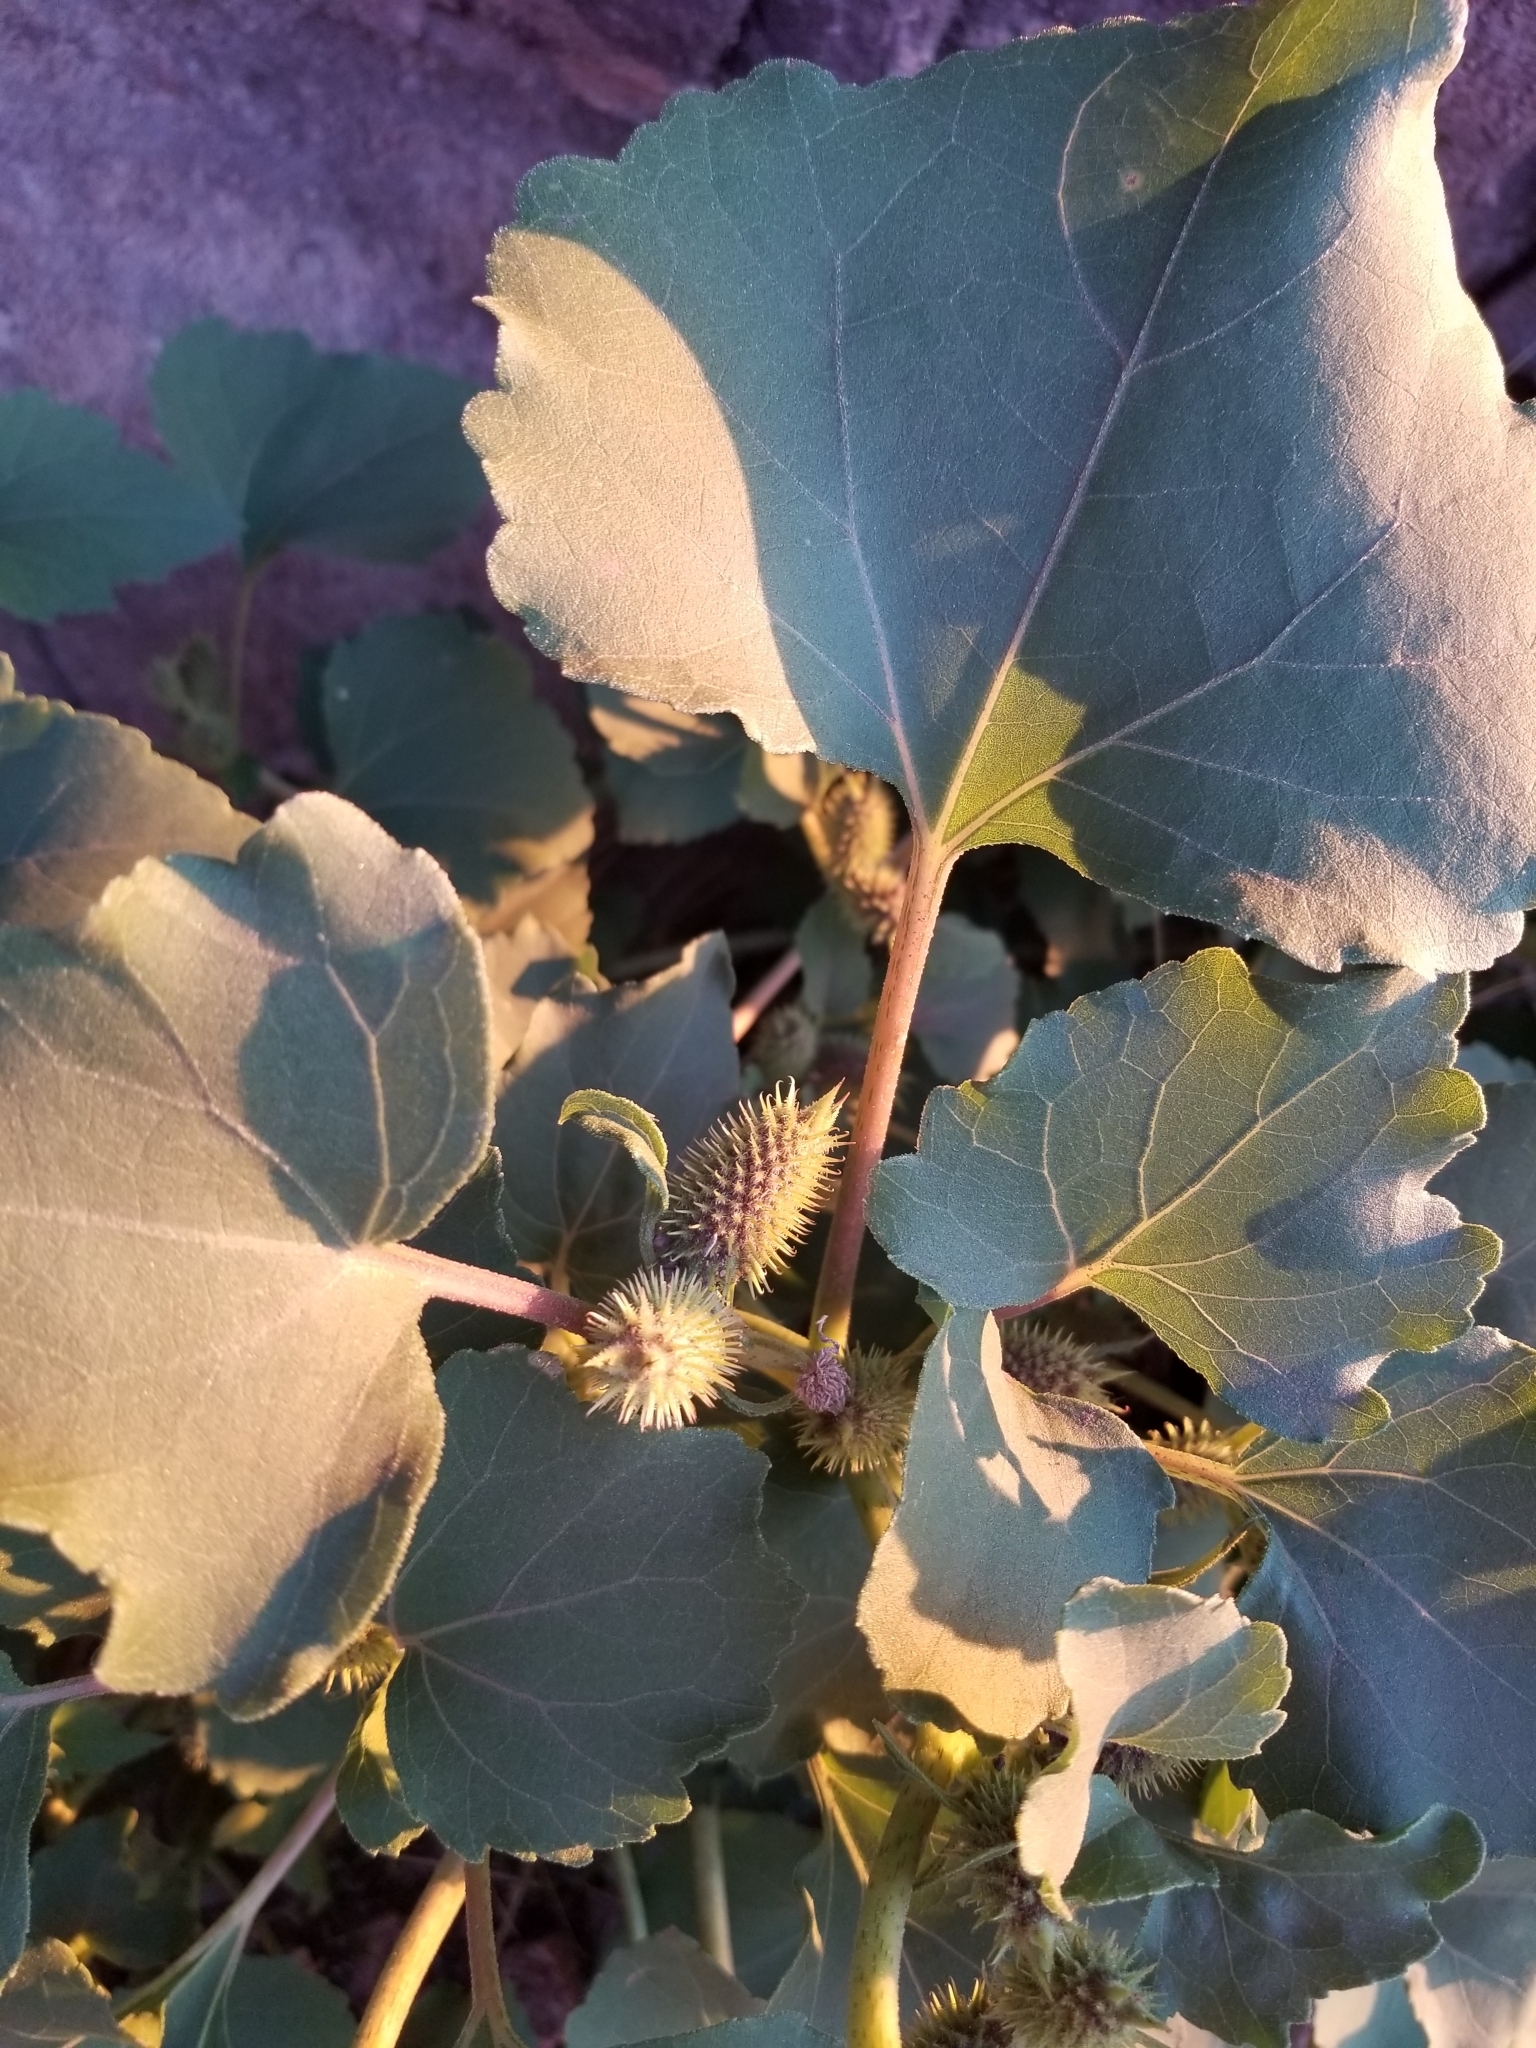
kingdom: Plantae
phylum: Tracheophyta
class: Magnoliopsida
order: Asterales
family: Asteraceae
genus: Xanthium
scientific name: Xanthium strumarium
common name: Rough cocklebur
